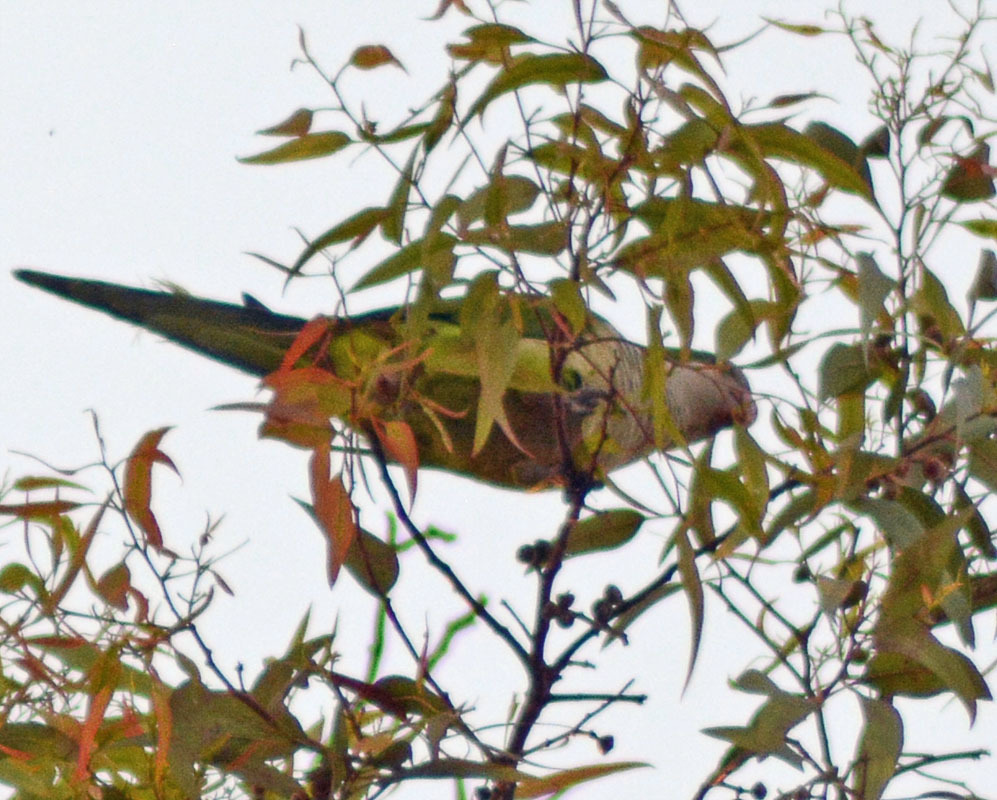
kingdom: Animalia
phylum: Chordata
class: Aves
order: Psittaciformes
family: Psittacidae
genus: Myiopsitta
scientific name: Myiopsitta monachus
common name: Monk parakeet
